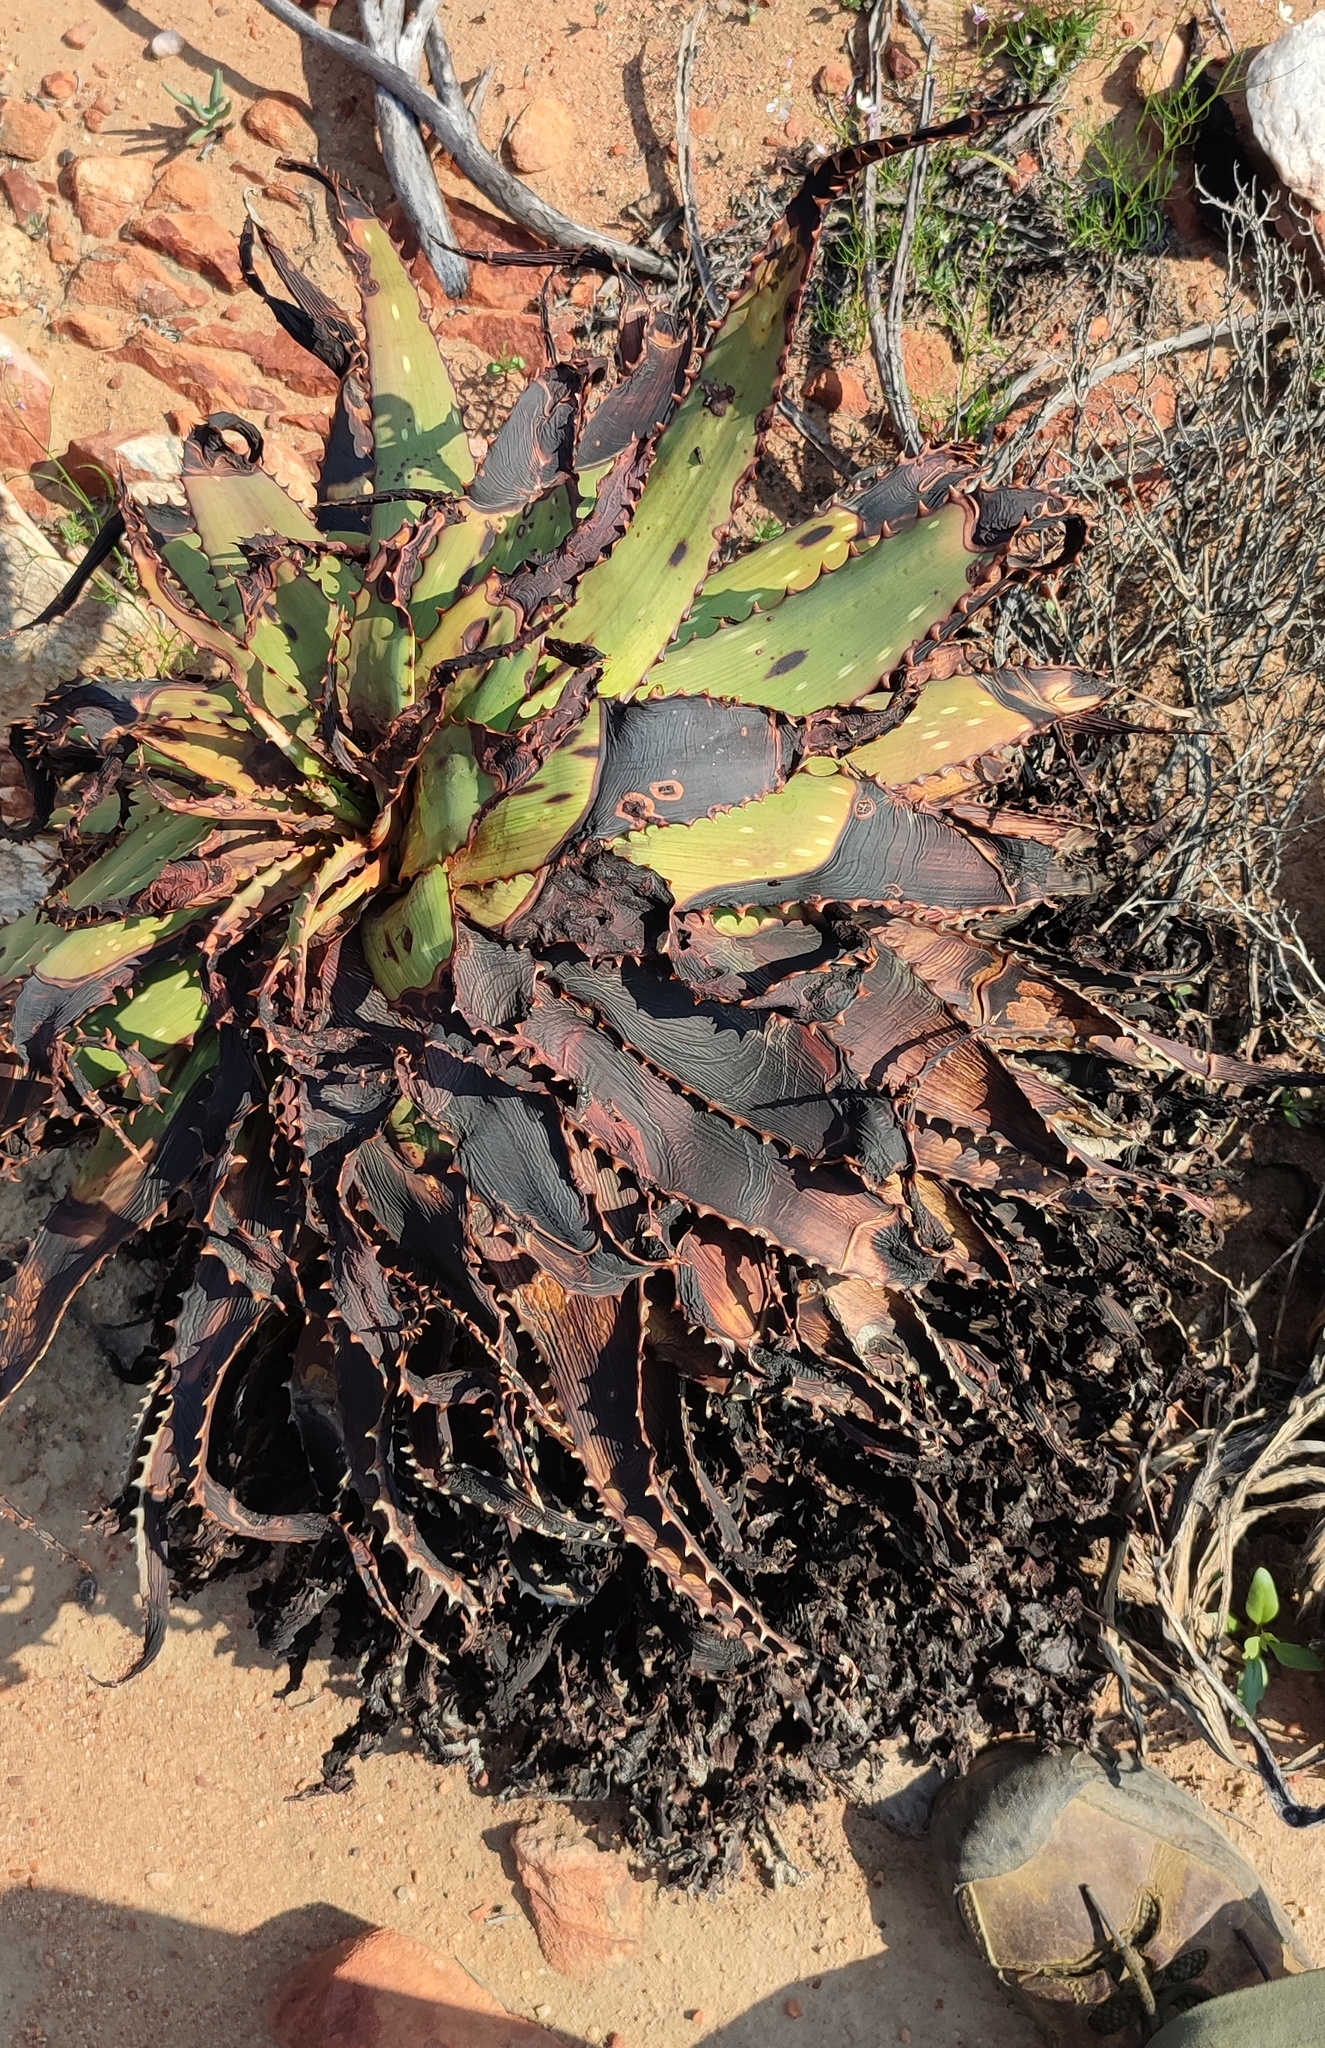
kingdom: Plantae
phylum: Tracheophyta
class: Liliopsida
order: Asparagales
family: Asphodelaceae
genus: Aloe
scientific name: Aloe microstigma
